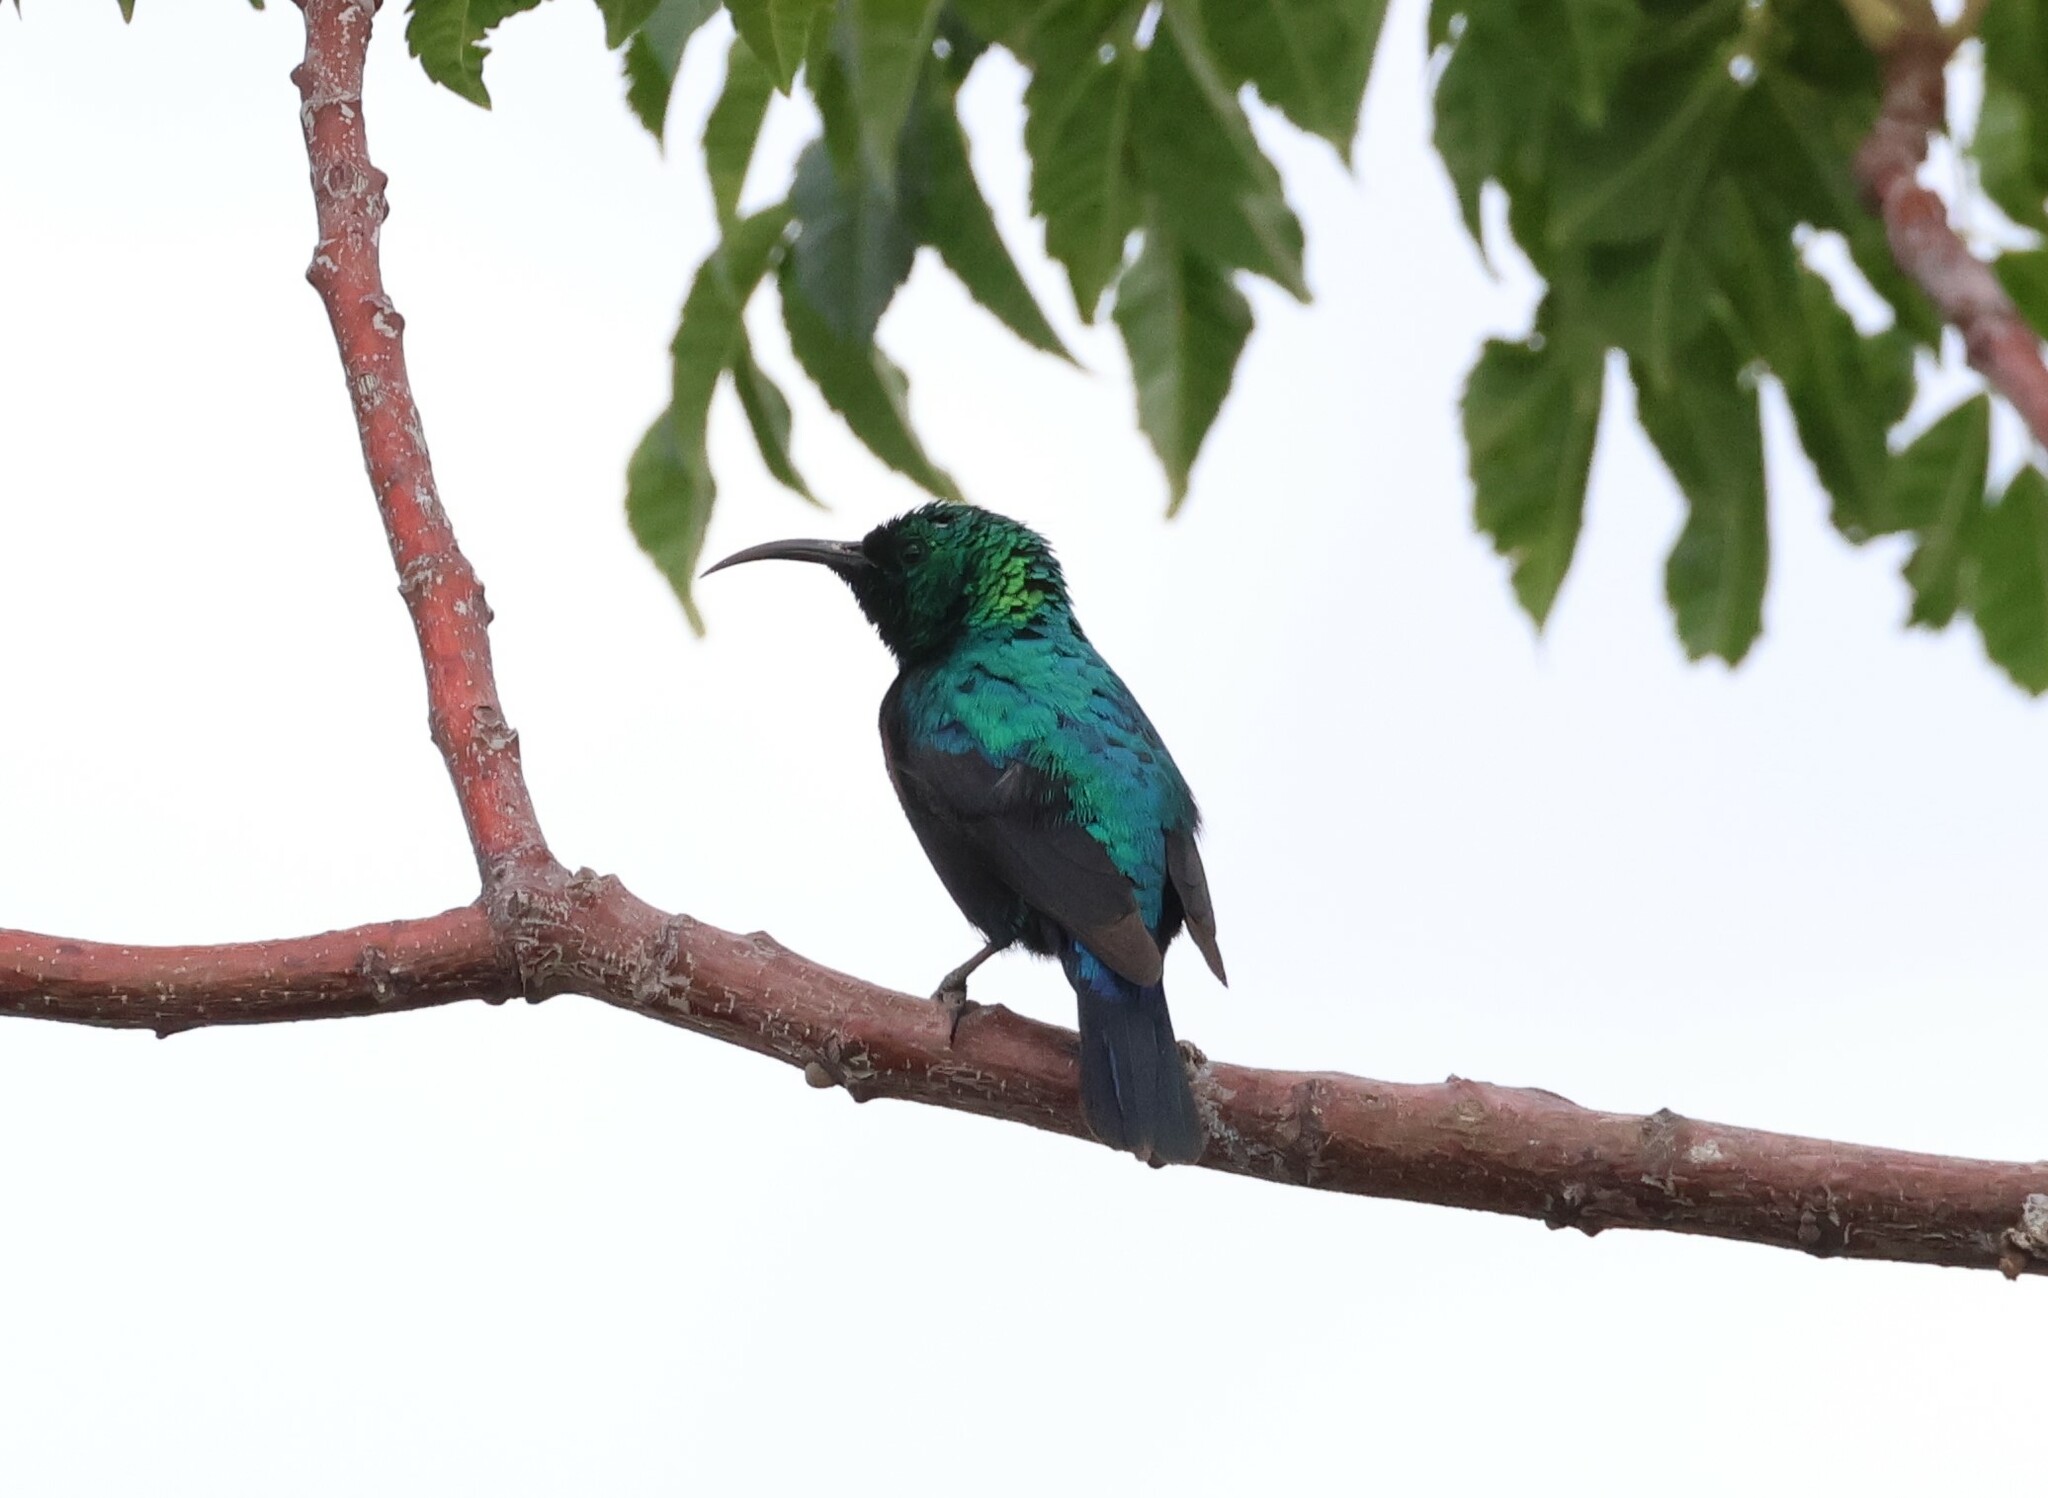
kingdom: Animalia
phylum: Chordata
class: Aves
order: Passeriformes
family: Nectariniidae
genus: Cinnyris
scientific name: Cinnyris mariquensis
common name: Marico sunbird
